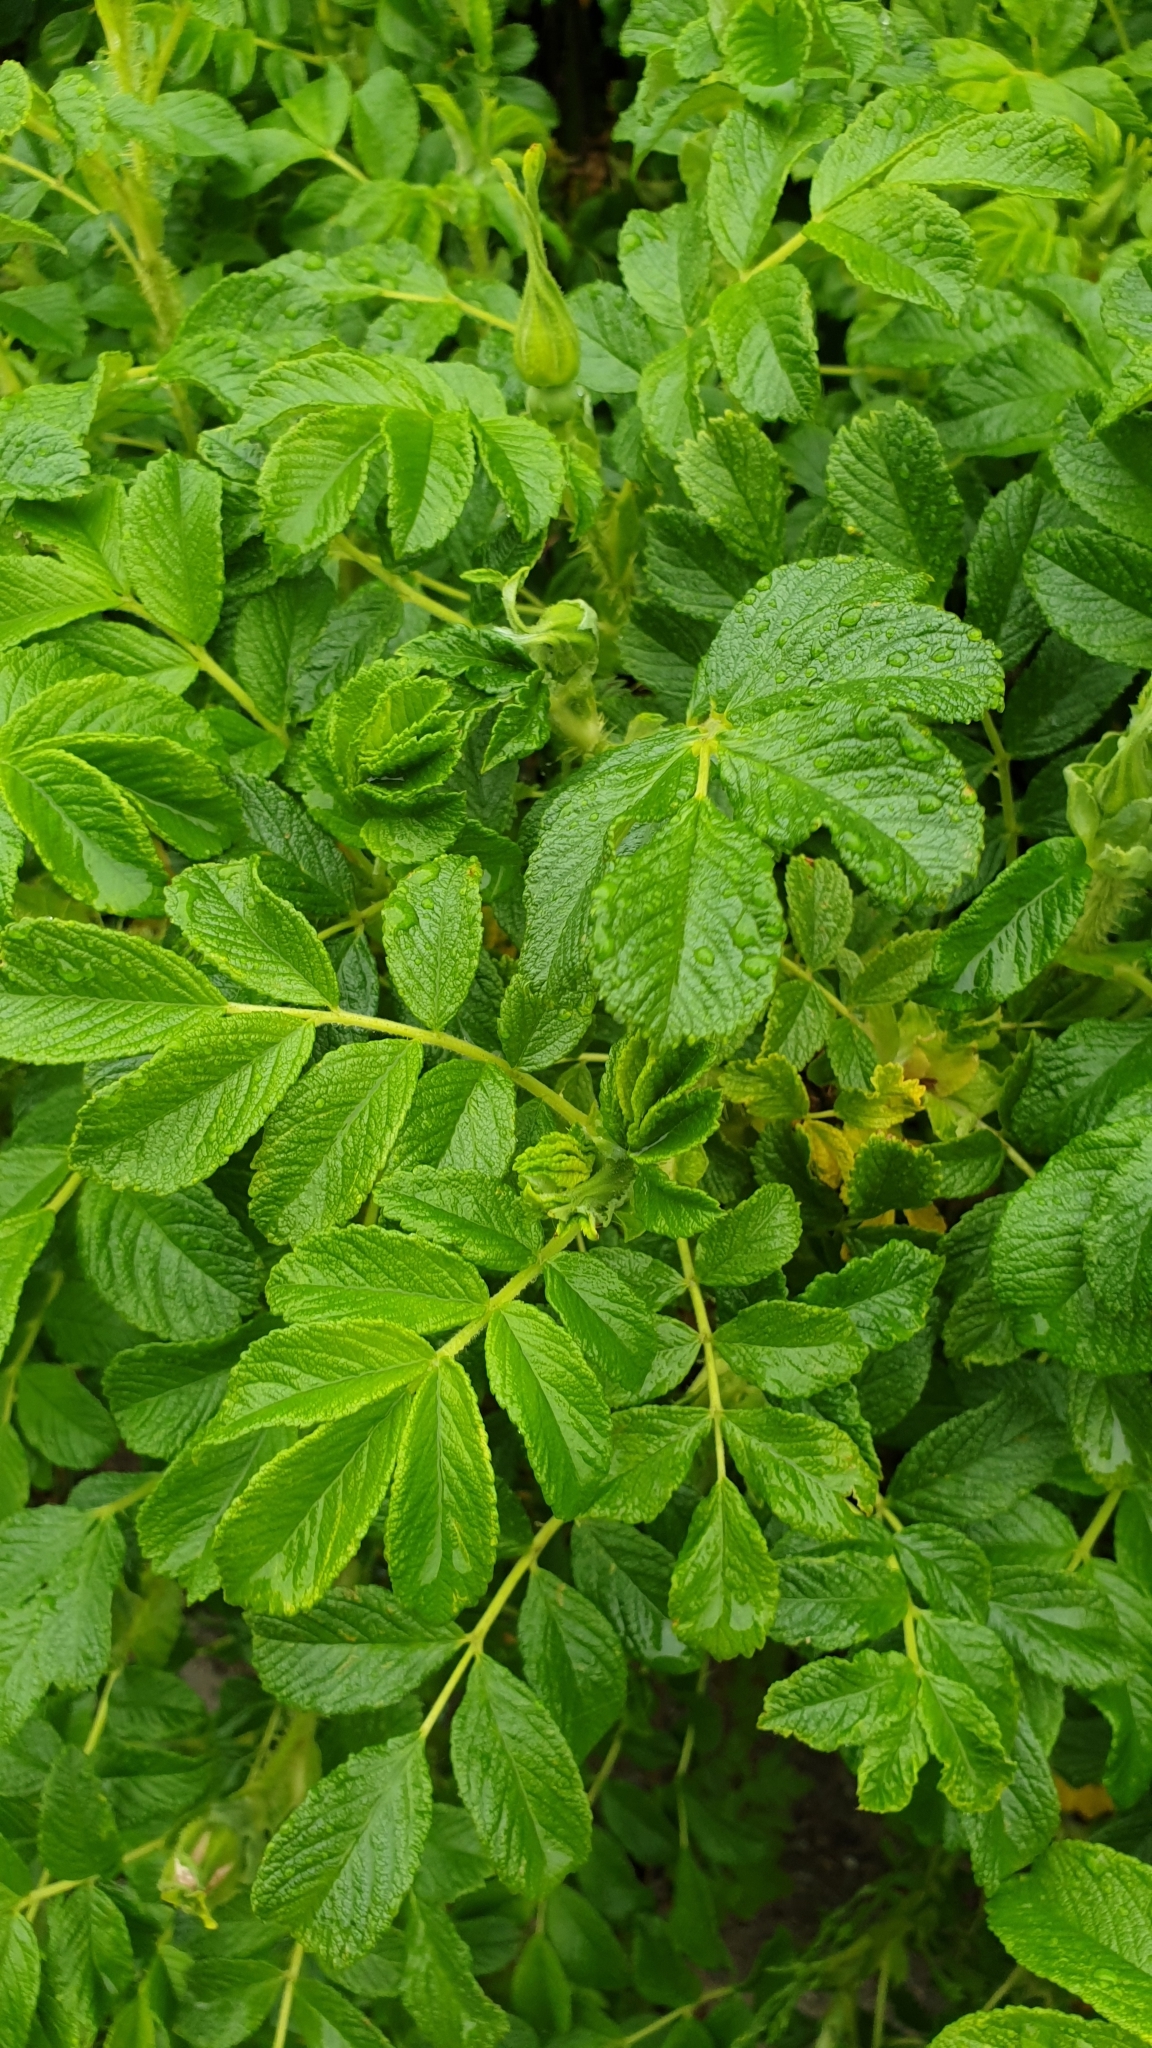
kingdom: Plantae
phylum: Tracheophyta
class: Magnoliopsida
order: Rosales
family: Rosaceae
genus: Rosa
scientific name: Rosa rugosa
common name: Japanese rose
